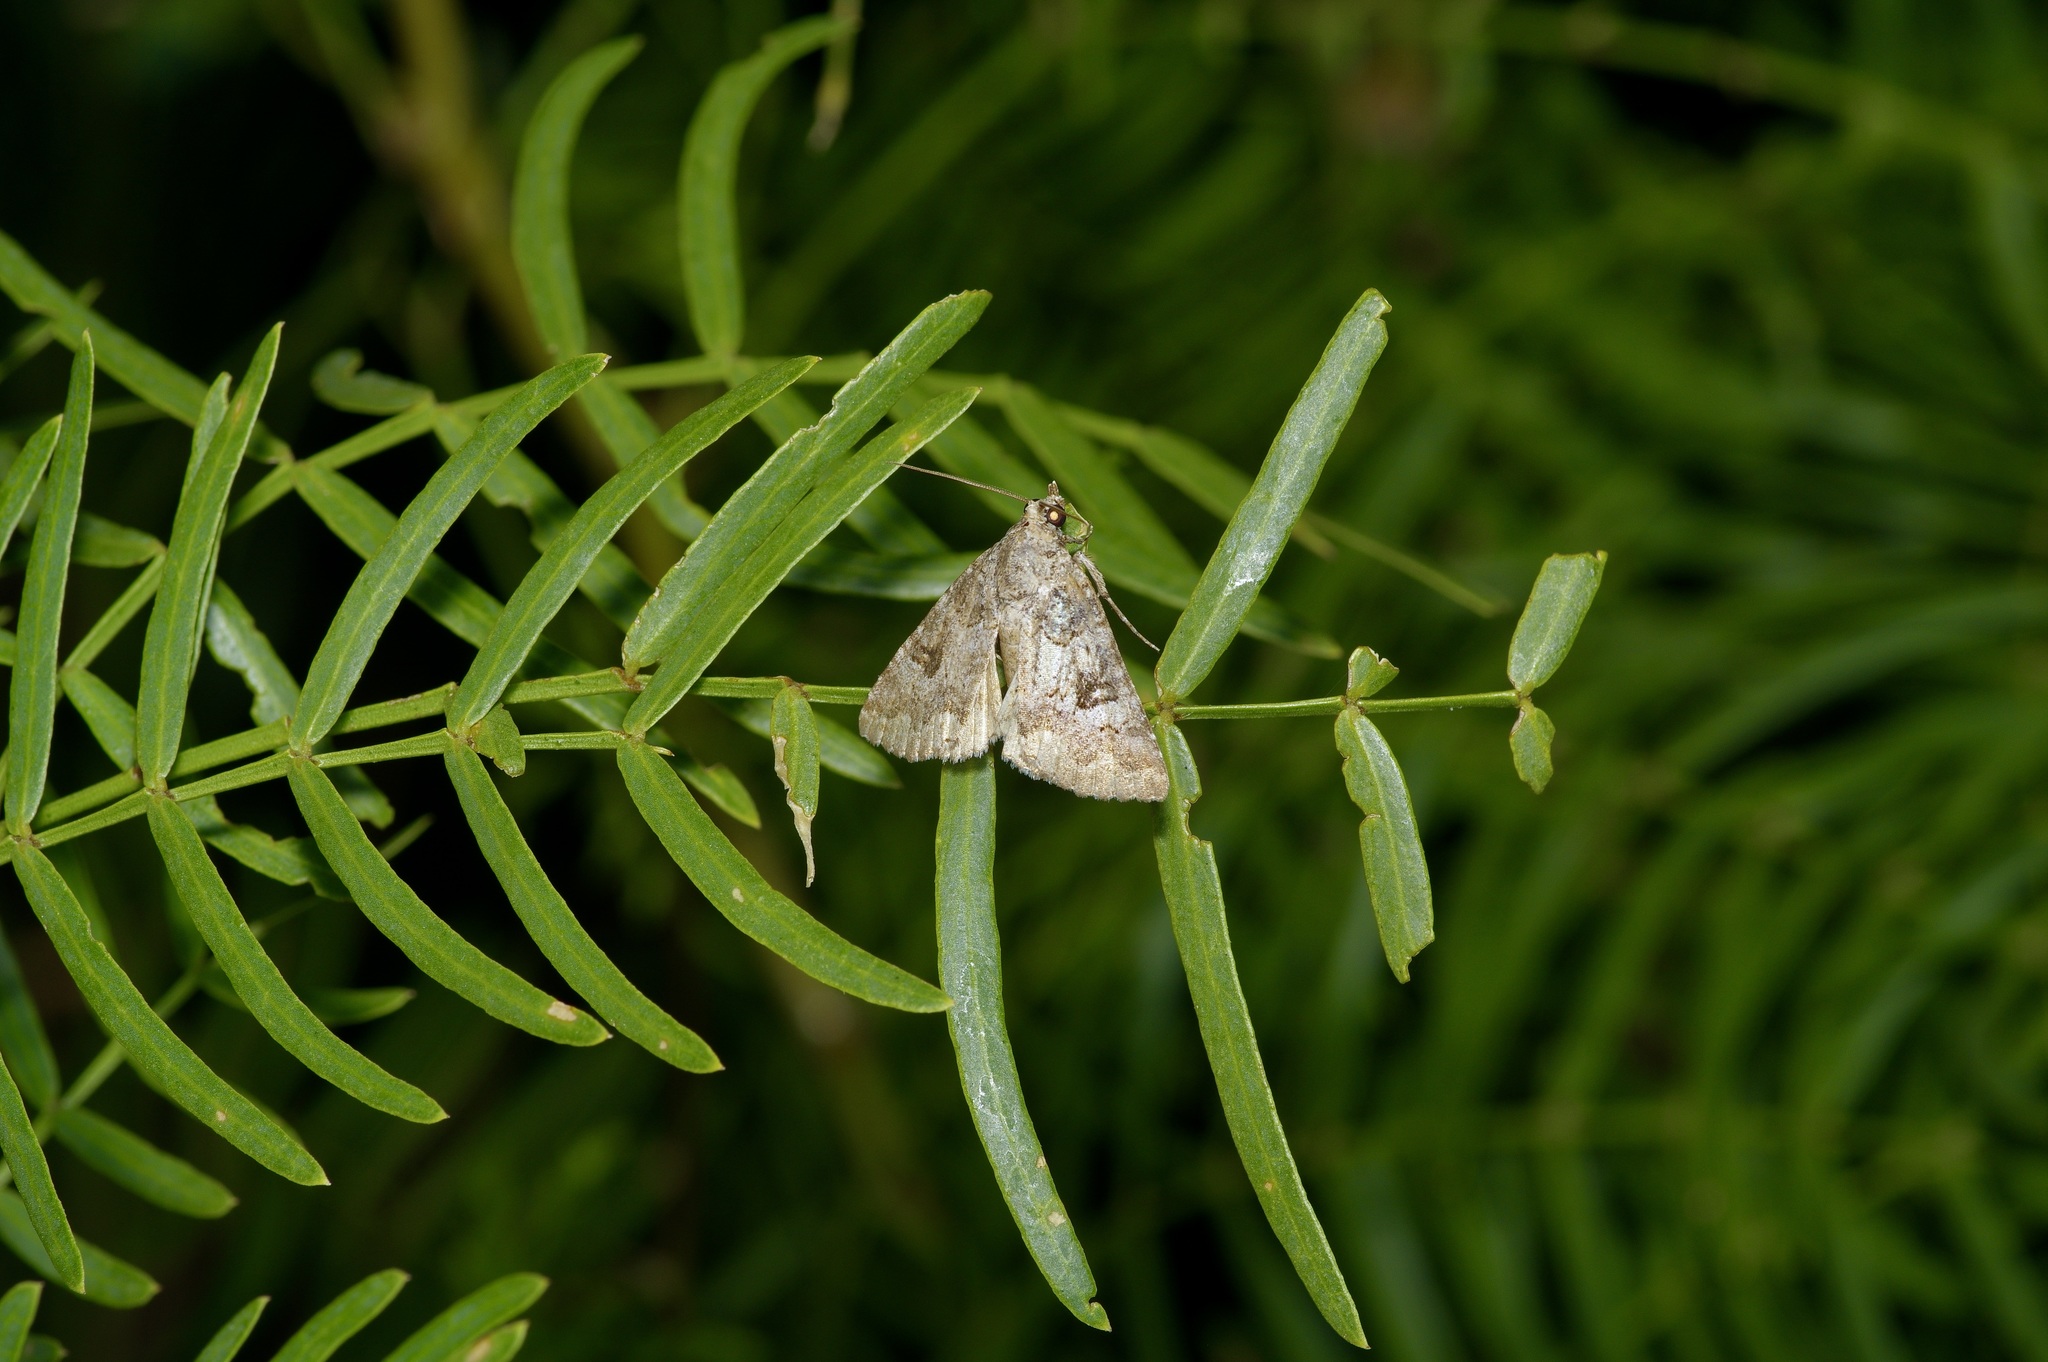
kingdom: Animalia
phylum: Arthropoda
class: Insecta
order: Lepidoptera
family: Erebidae
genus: Eubolina
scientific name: Eubolina impartialis
